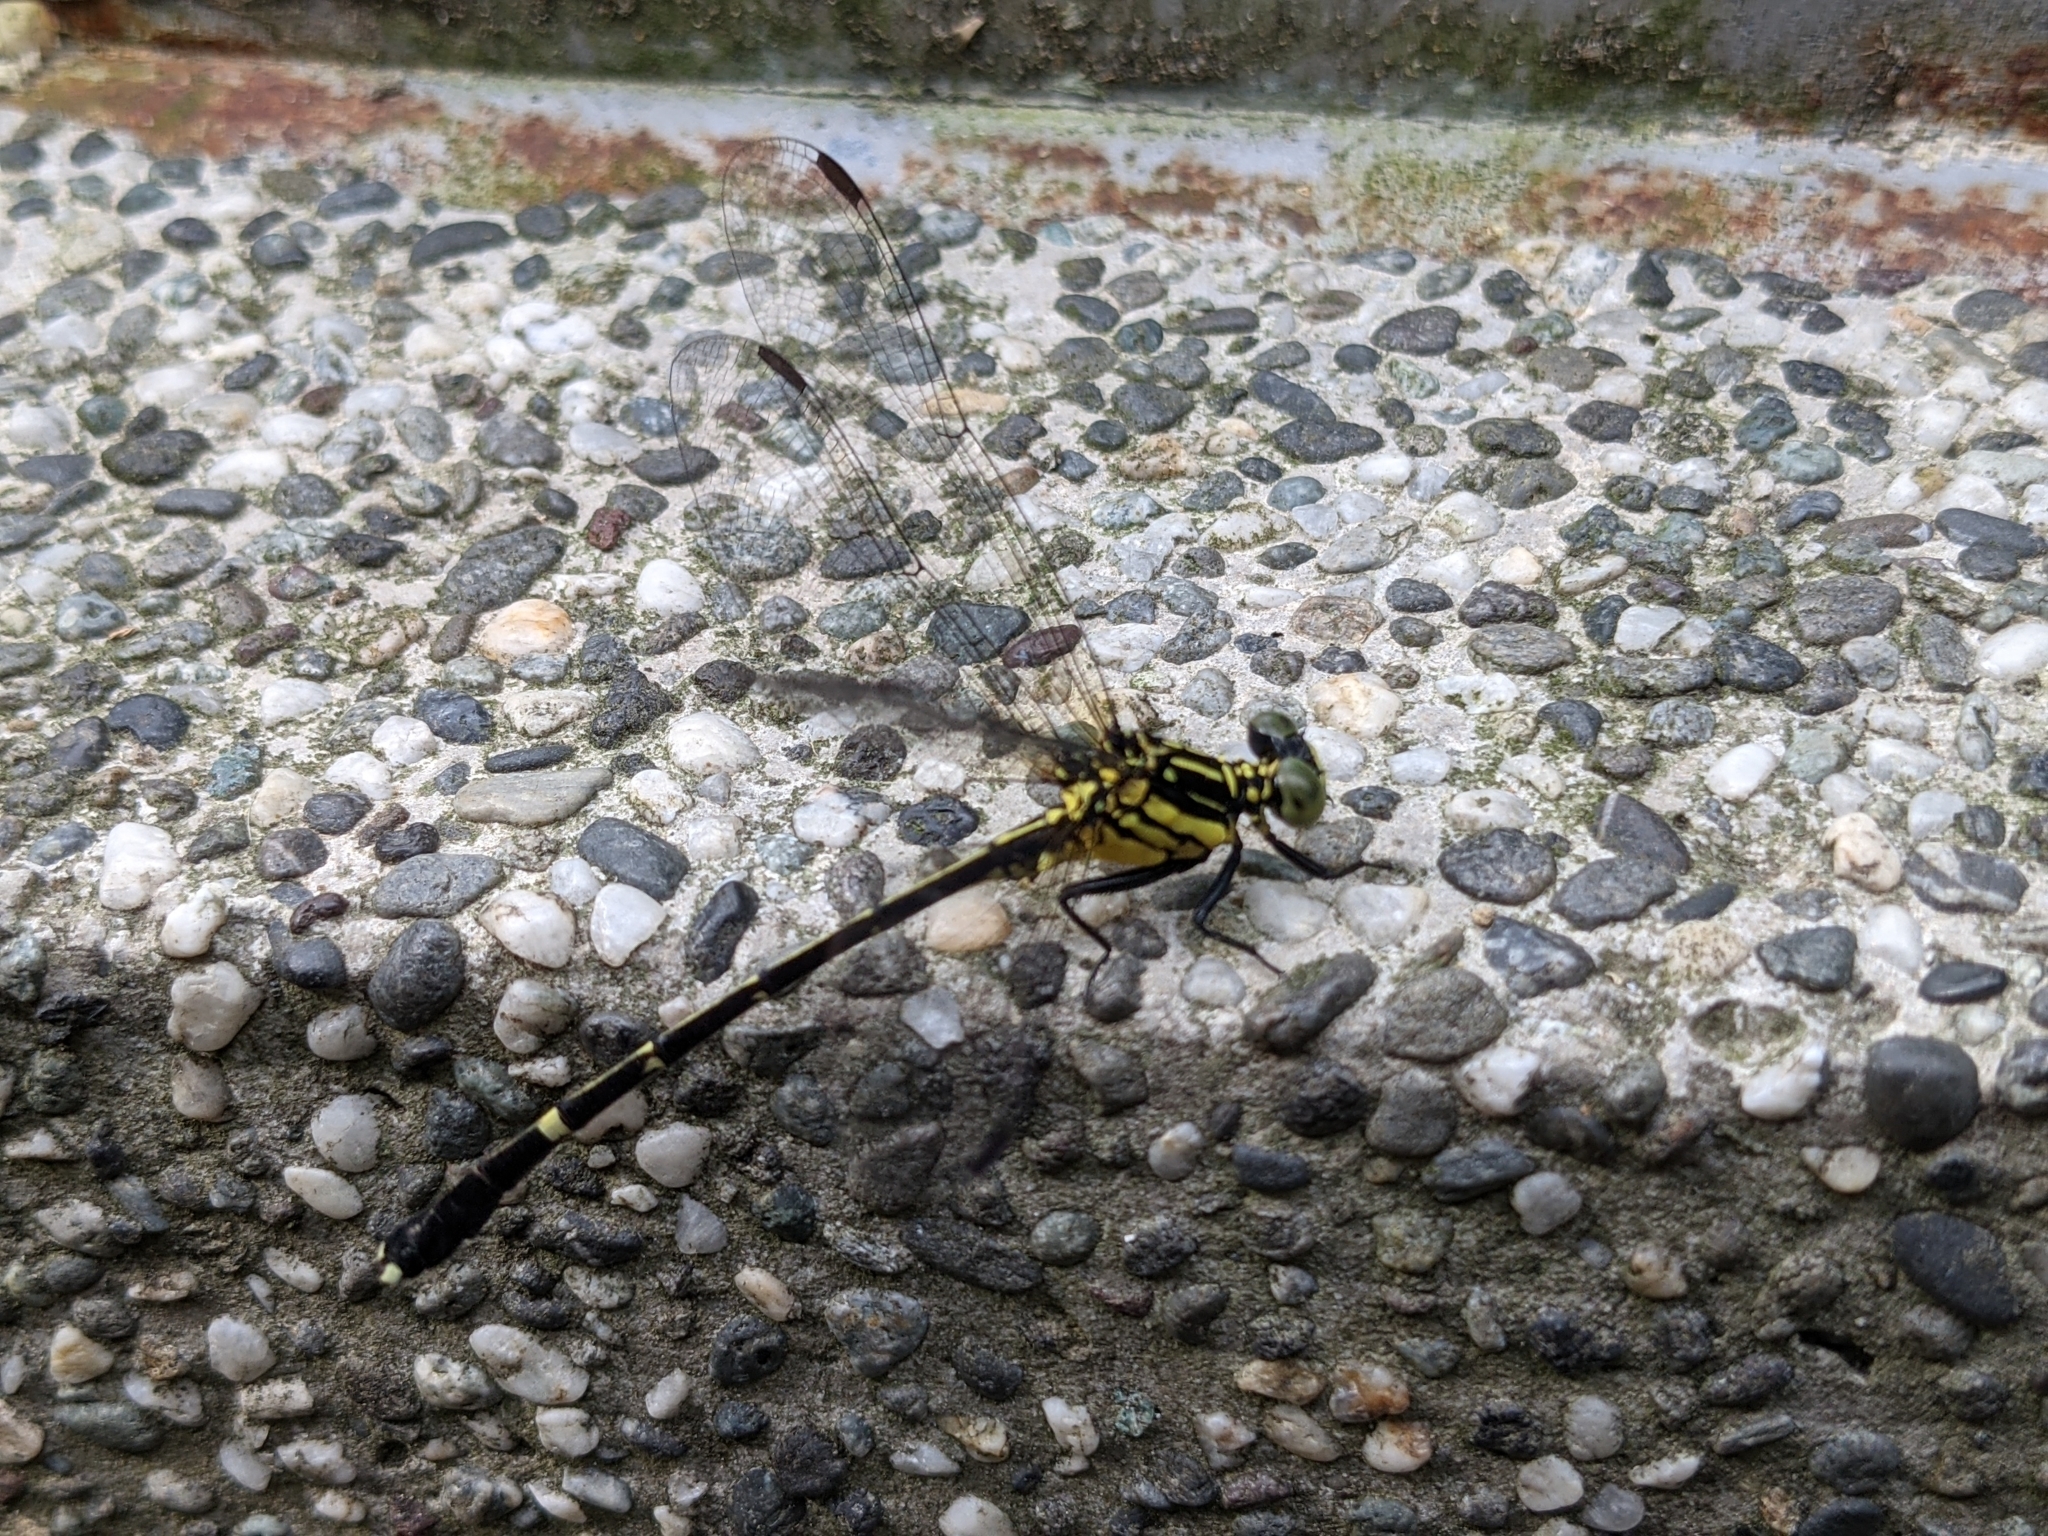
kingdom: Animalia
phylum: Arthropoda
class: Insecta
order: Odonata
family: Gomphidae
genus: Leptogomphus
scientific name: Leptogomphus sauteri
